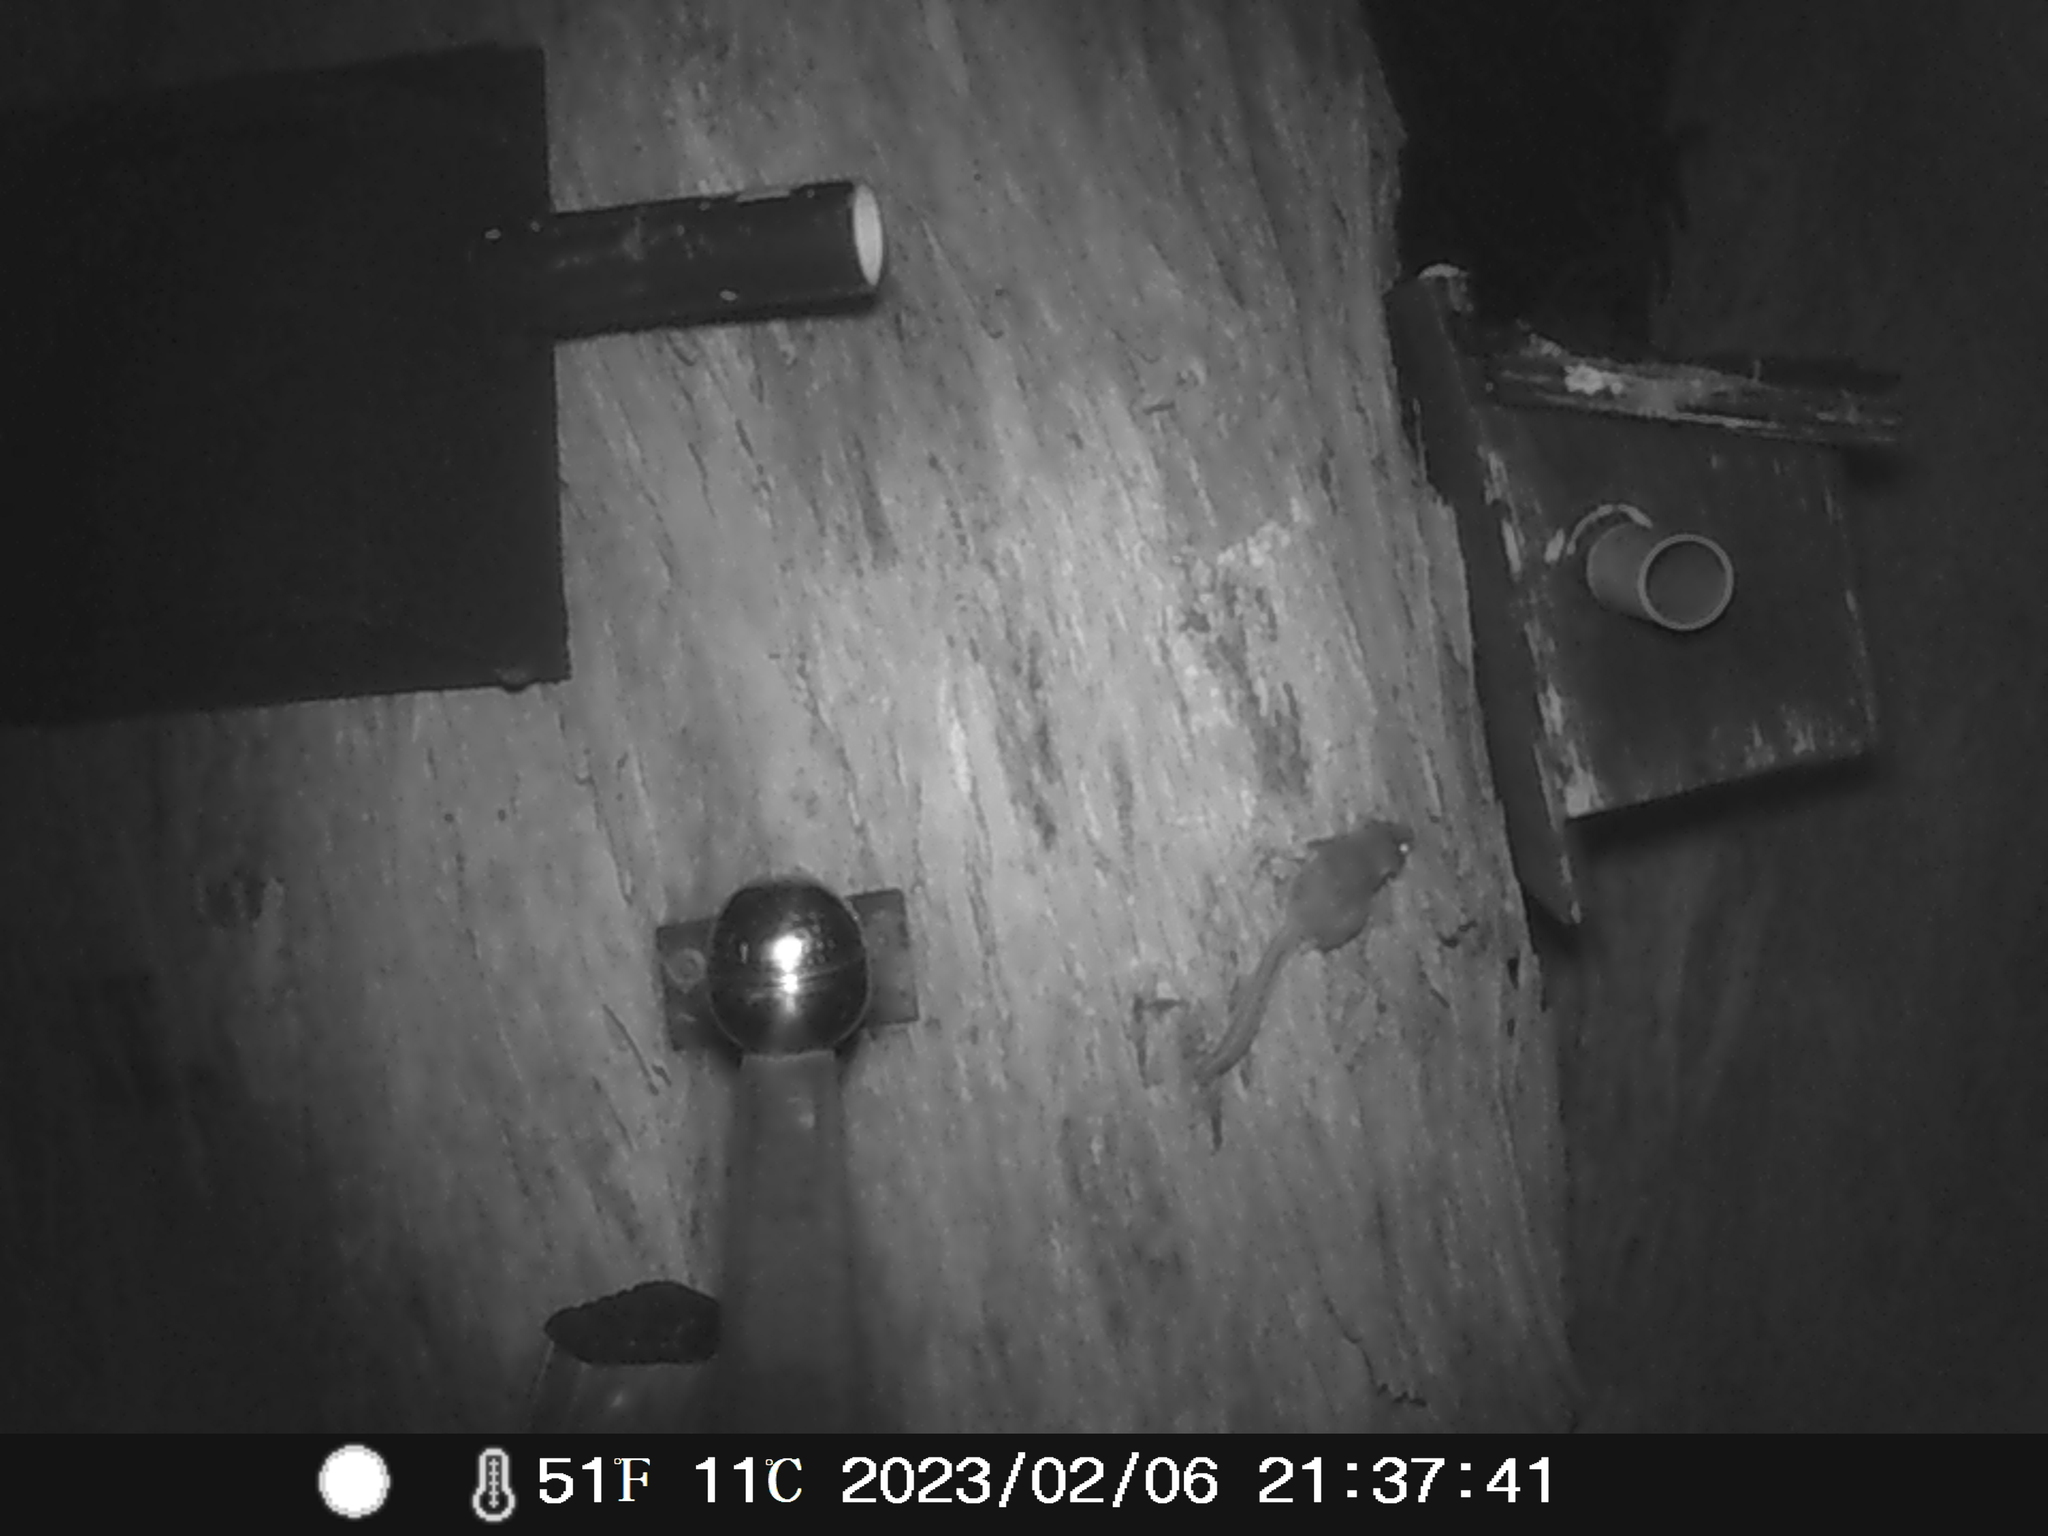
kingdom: Animalia
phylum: Chordata
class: Mammalia
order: Diprotodontia
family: Acrobatidae
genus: Acrobates
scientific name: Acrobates pygmaeus
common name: Feathertail glider
